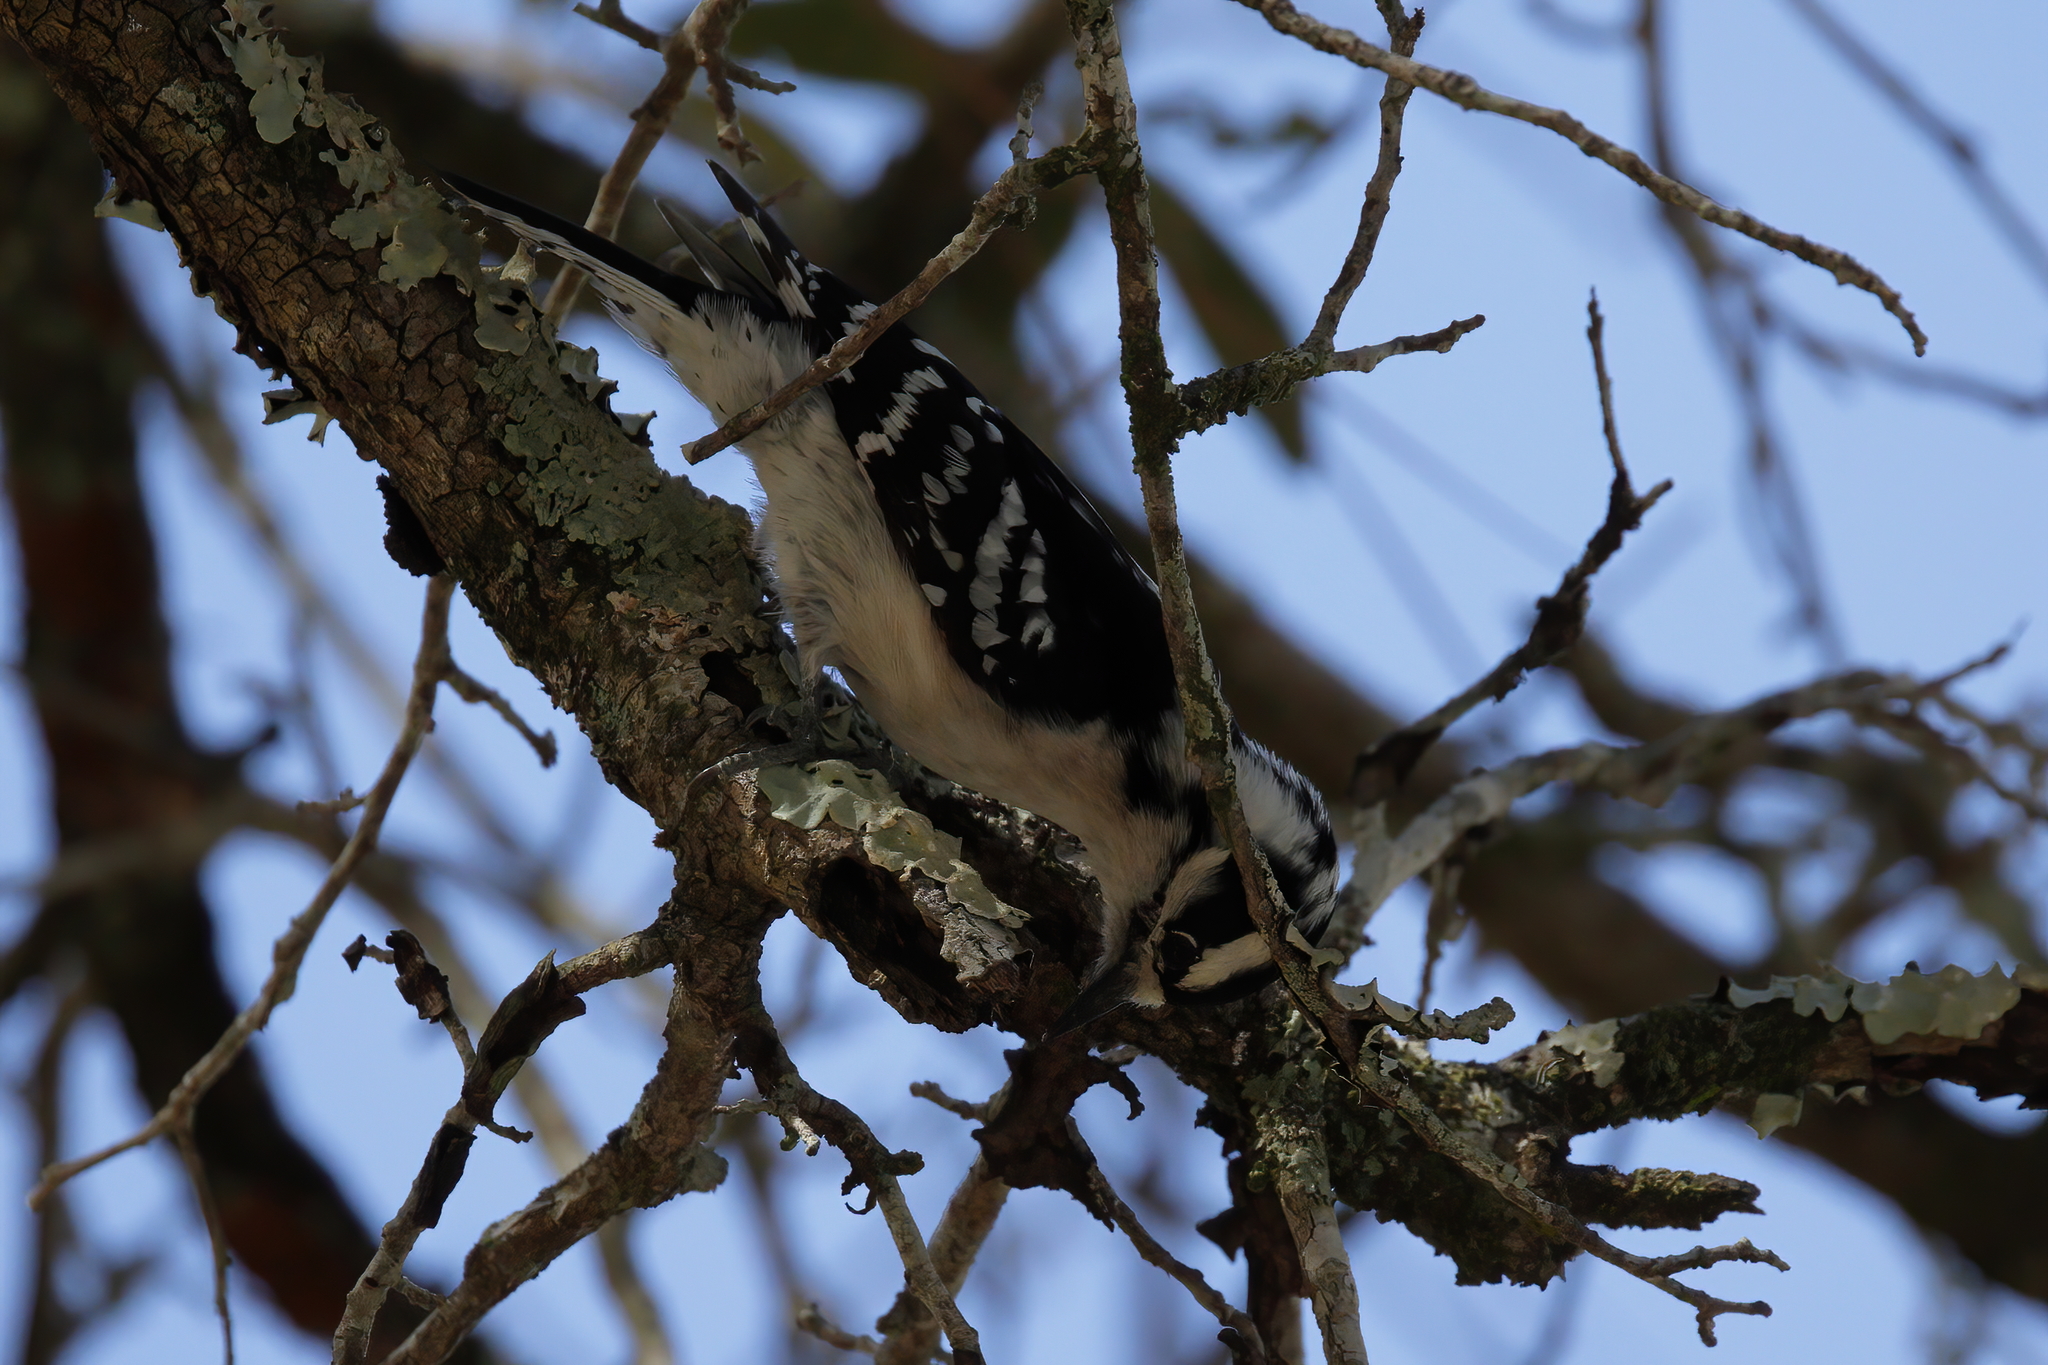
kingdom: Animalia
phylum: Chordata
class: Aves
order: Piciformes
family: Picidae
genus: Dryobates
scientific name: Dryobates pubescens
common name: Downy woodpecker
